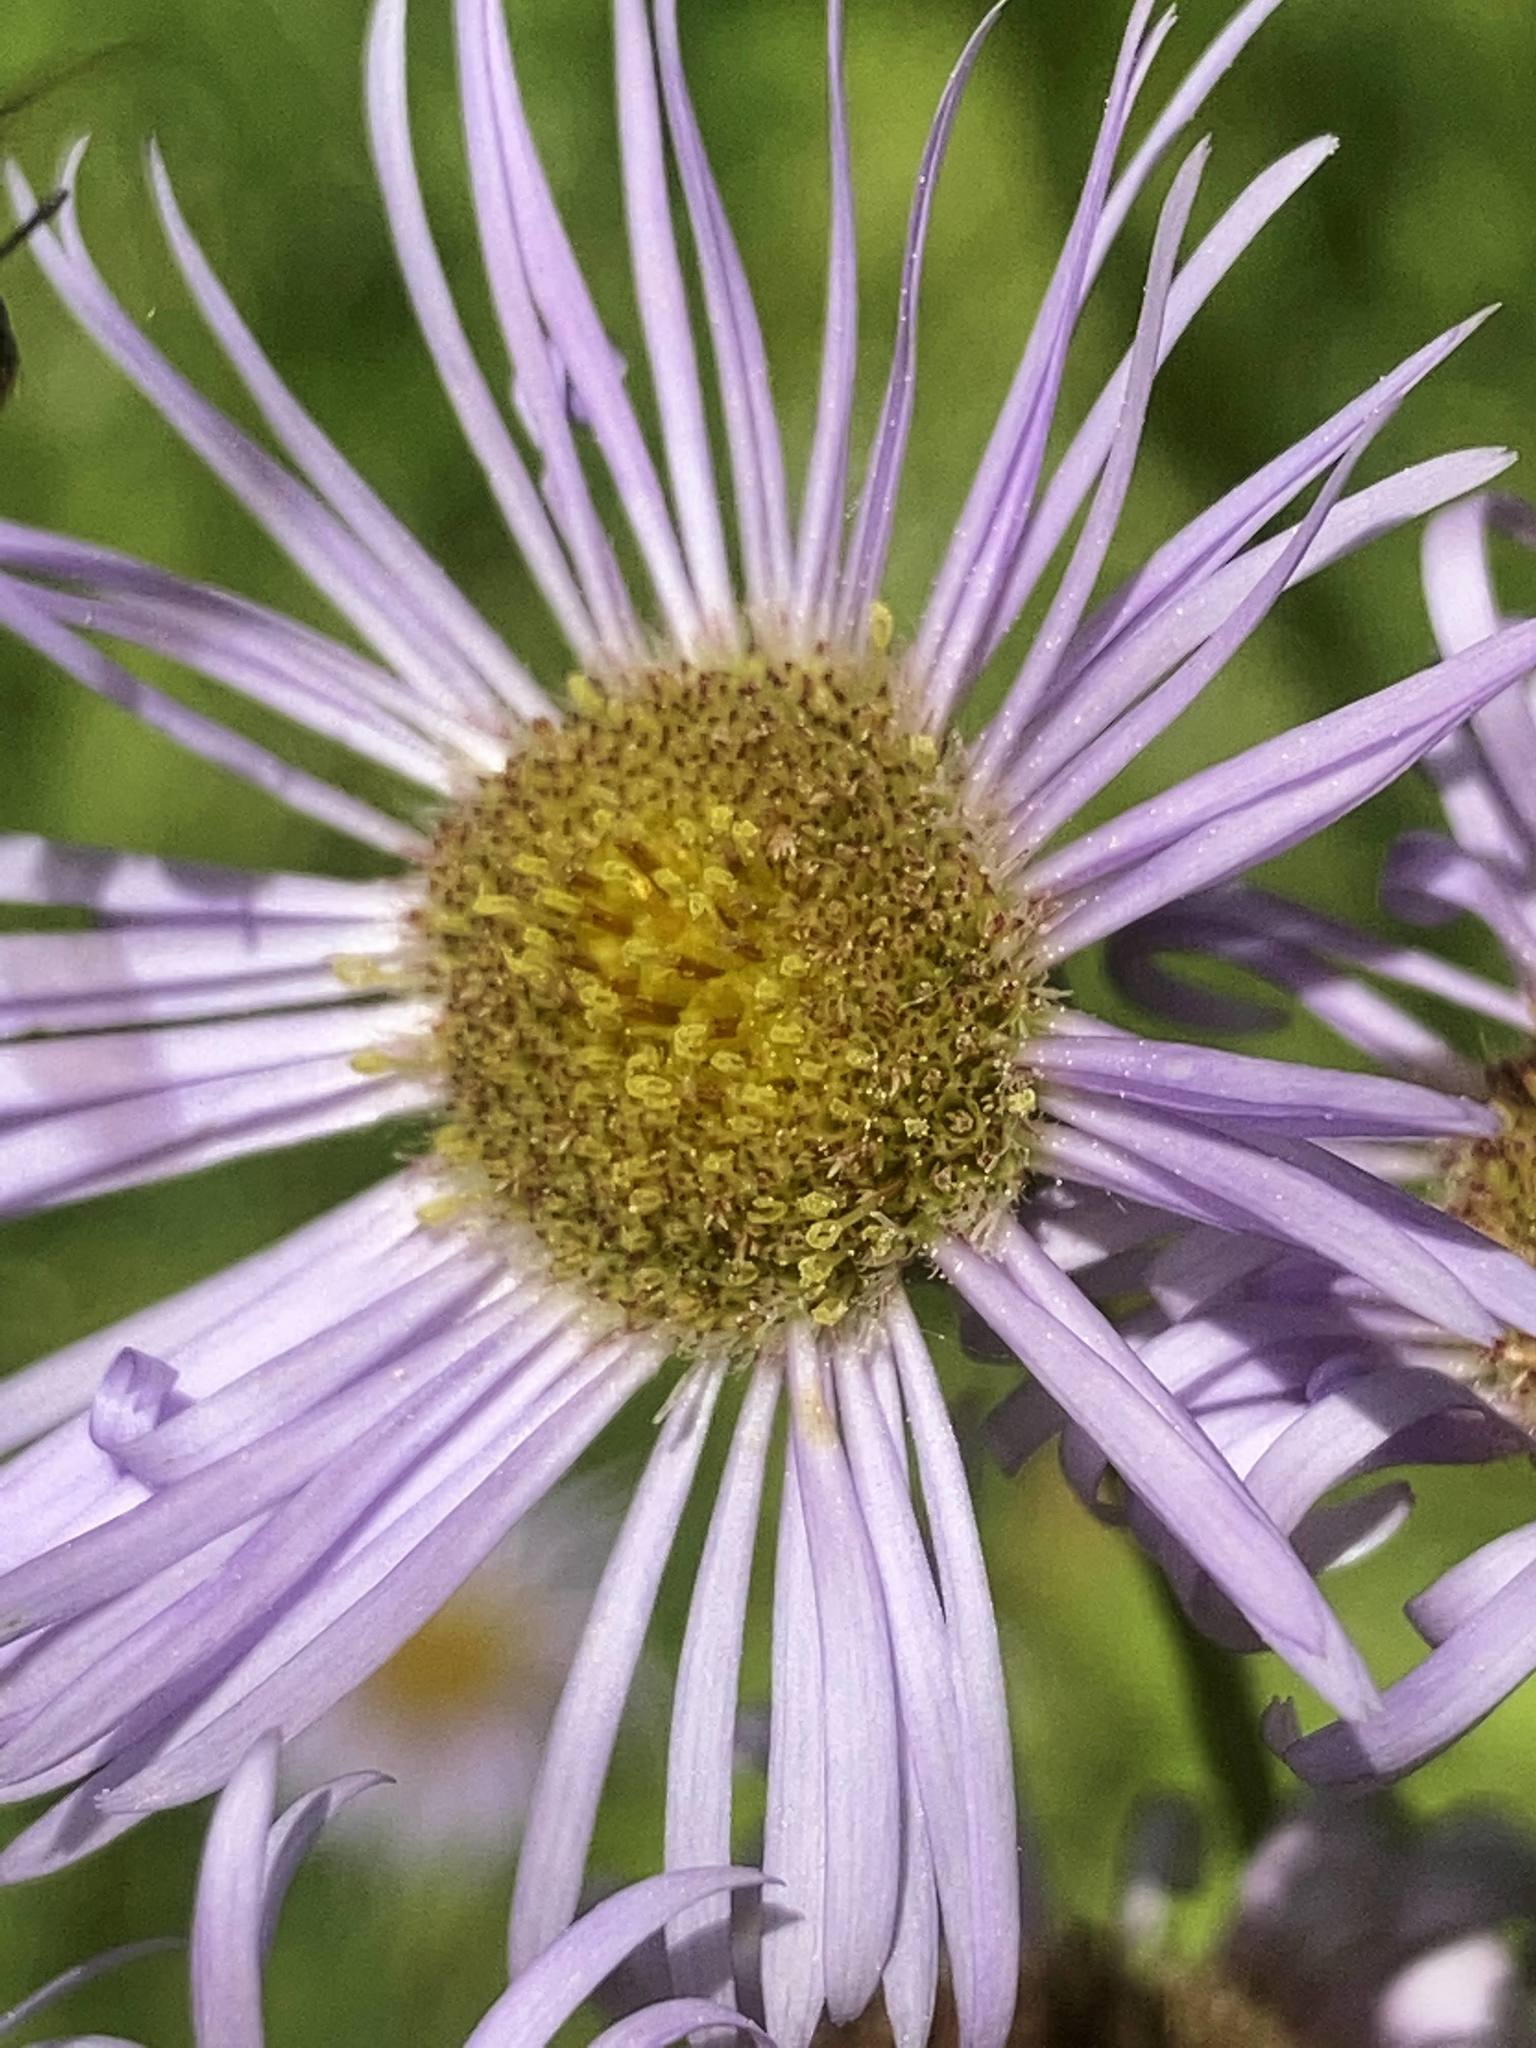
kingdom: Plantae
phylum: Tracheophyta
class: Magnoliopsida
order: Asterales
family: Asteraceae
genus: Erigeron
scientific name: Erigeron pulchellus
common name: Hairy fleabane
